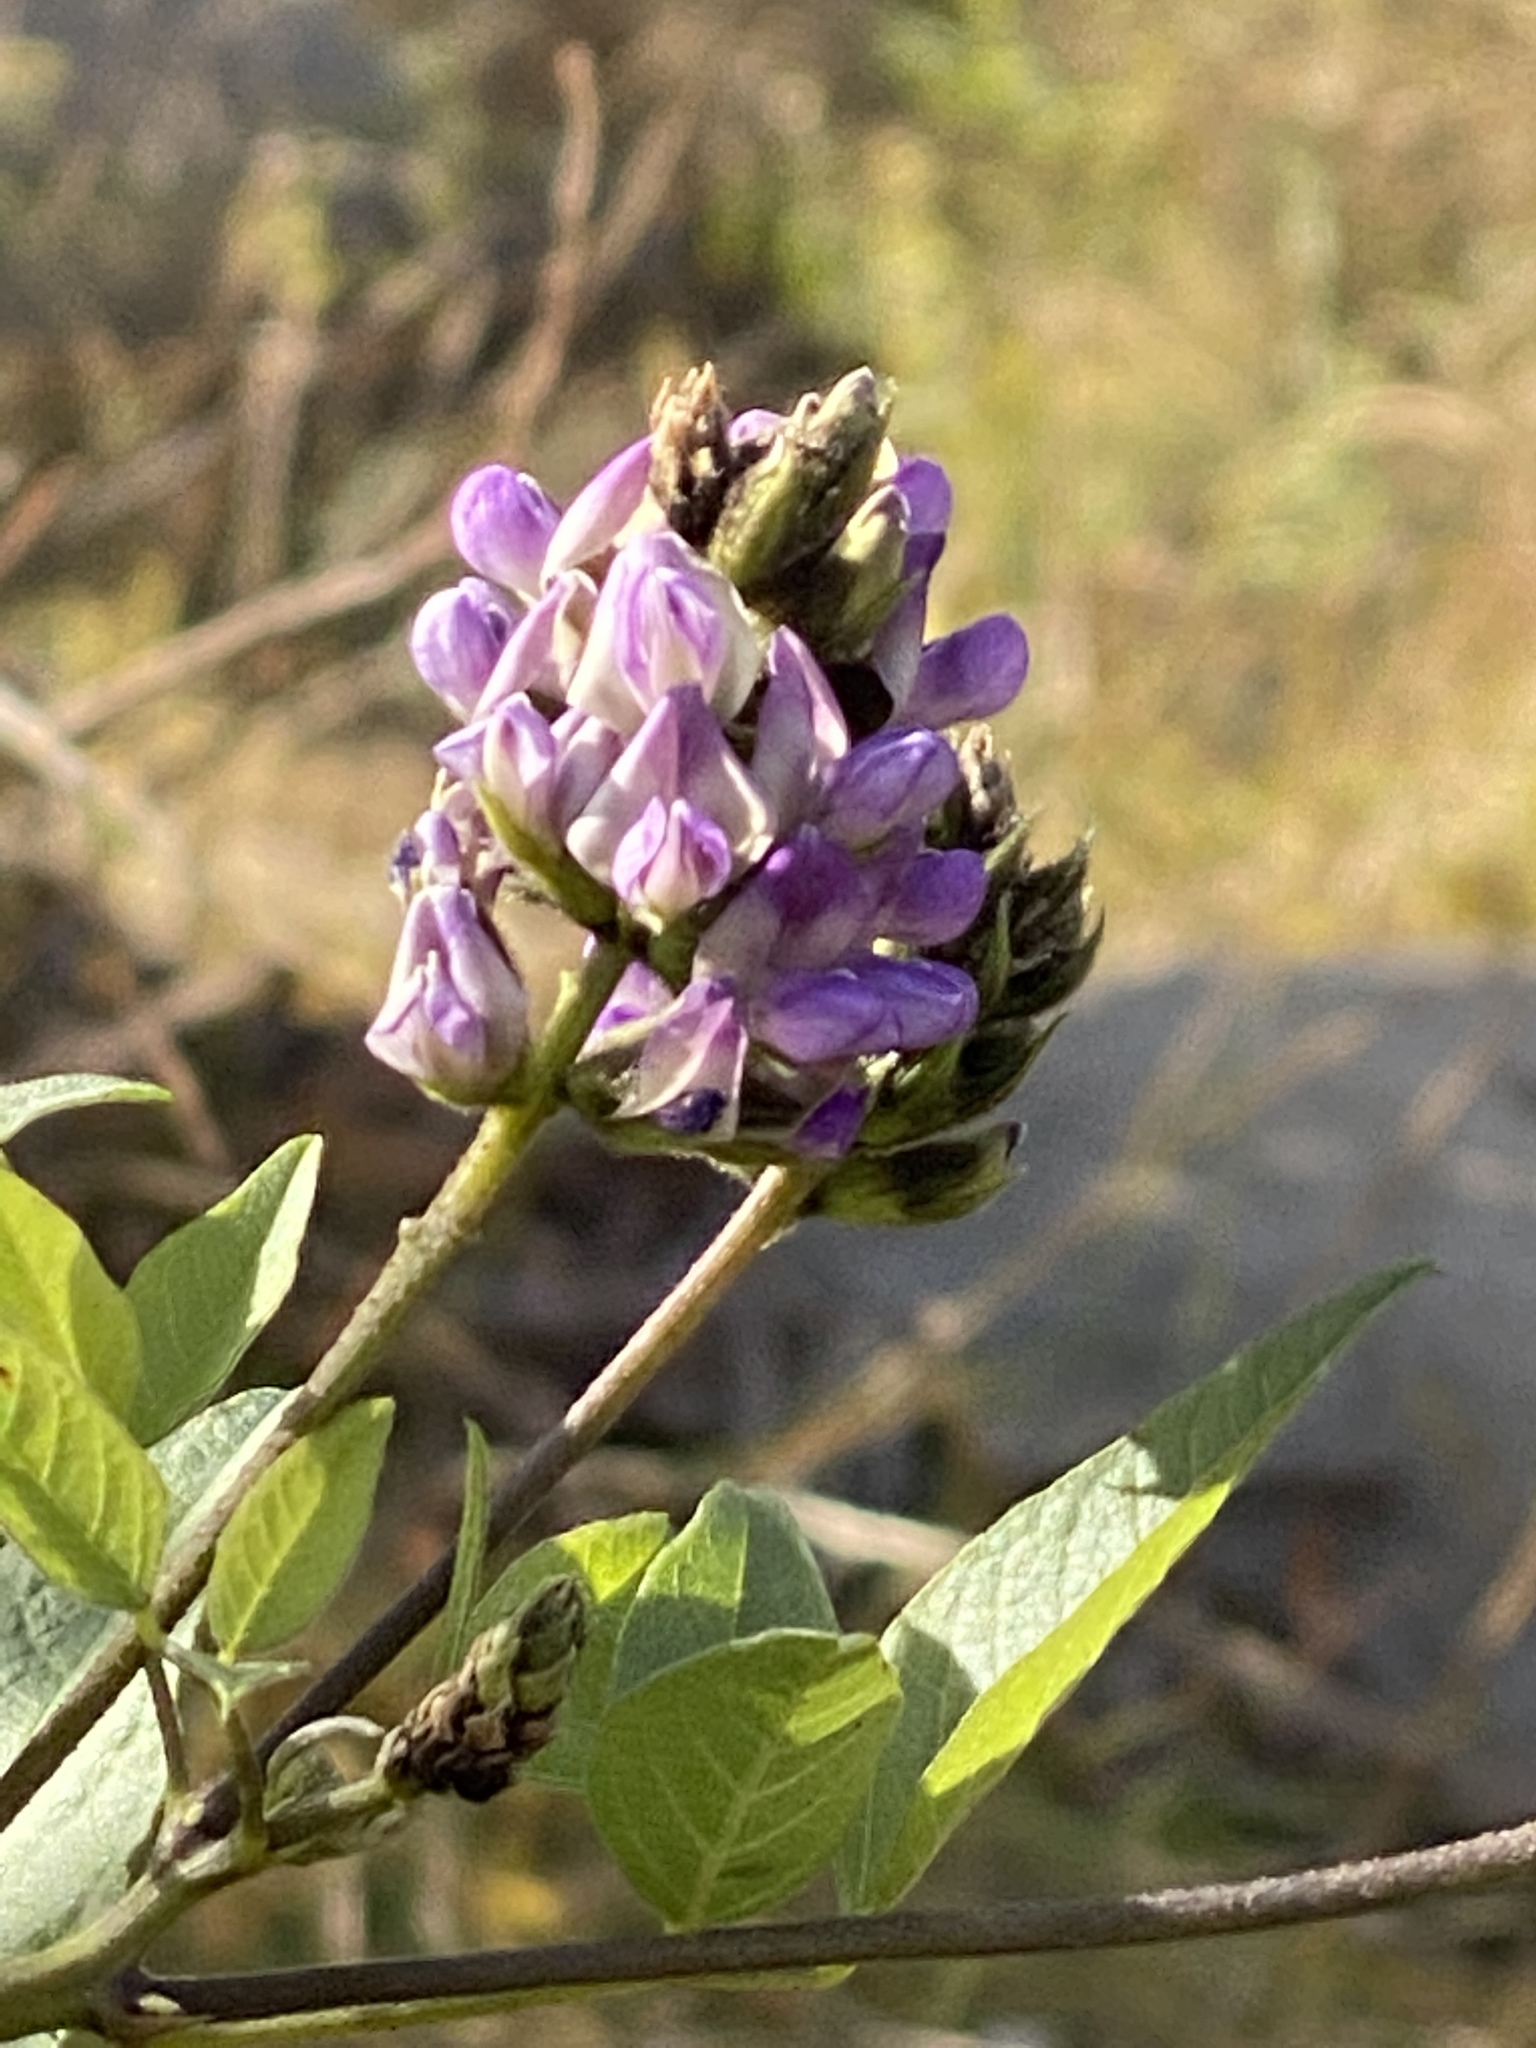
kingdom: Plantae
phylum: Tracheophyta
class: Magnoliopsida
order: Fabales
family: Fabaceae
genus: Hoita
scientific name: Hoita macrostachya
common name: Leatherroot
